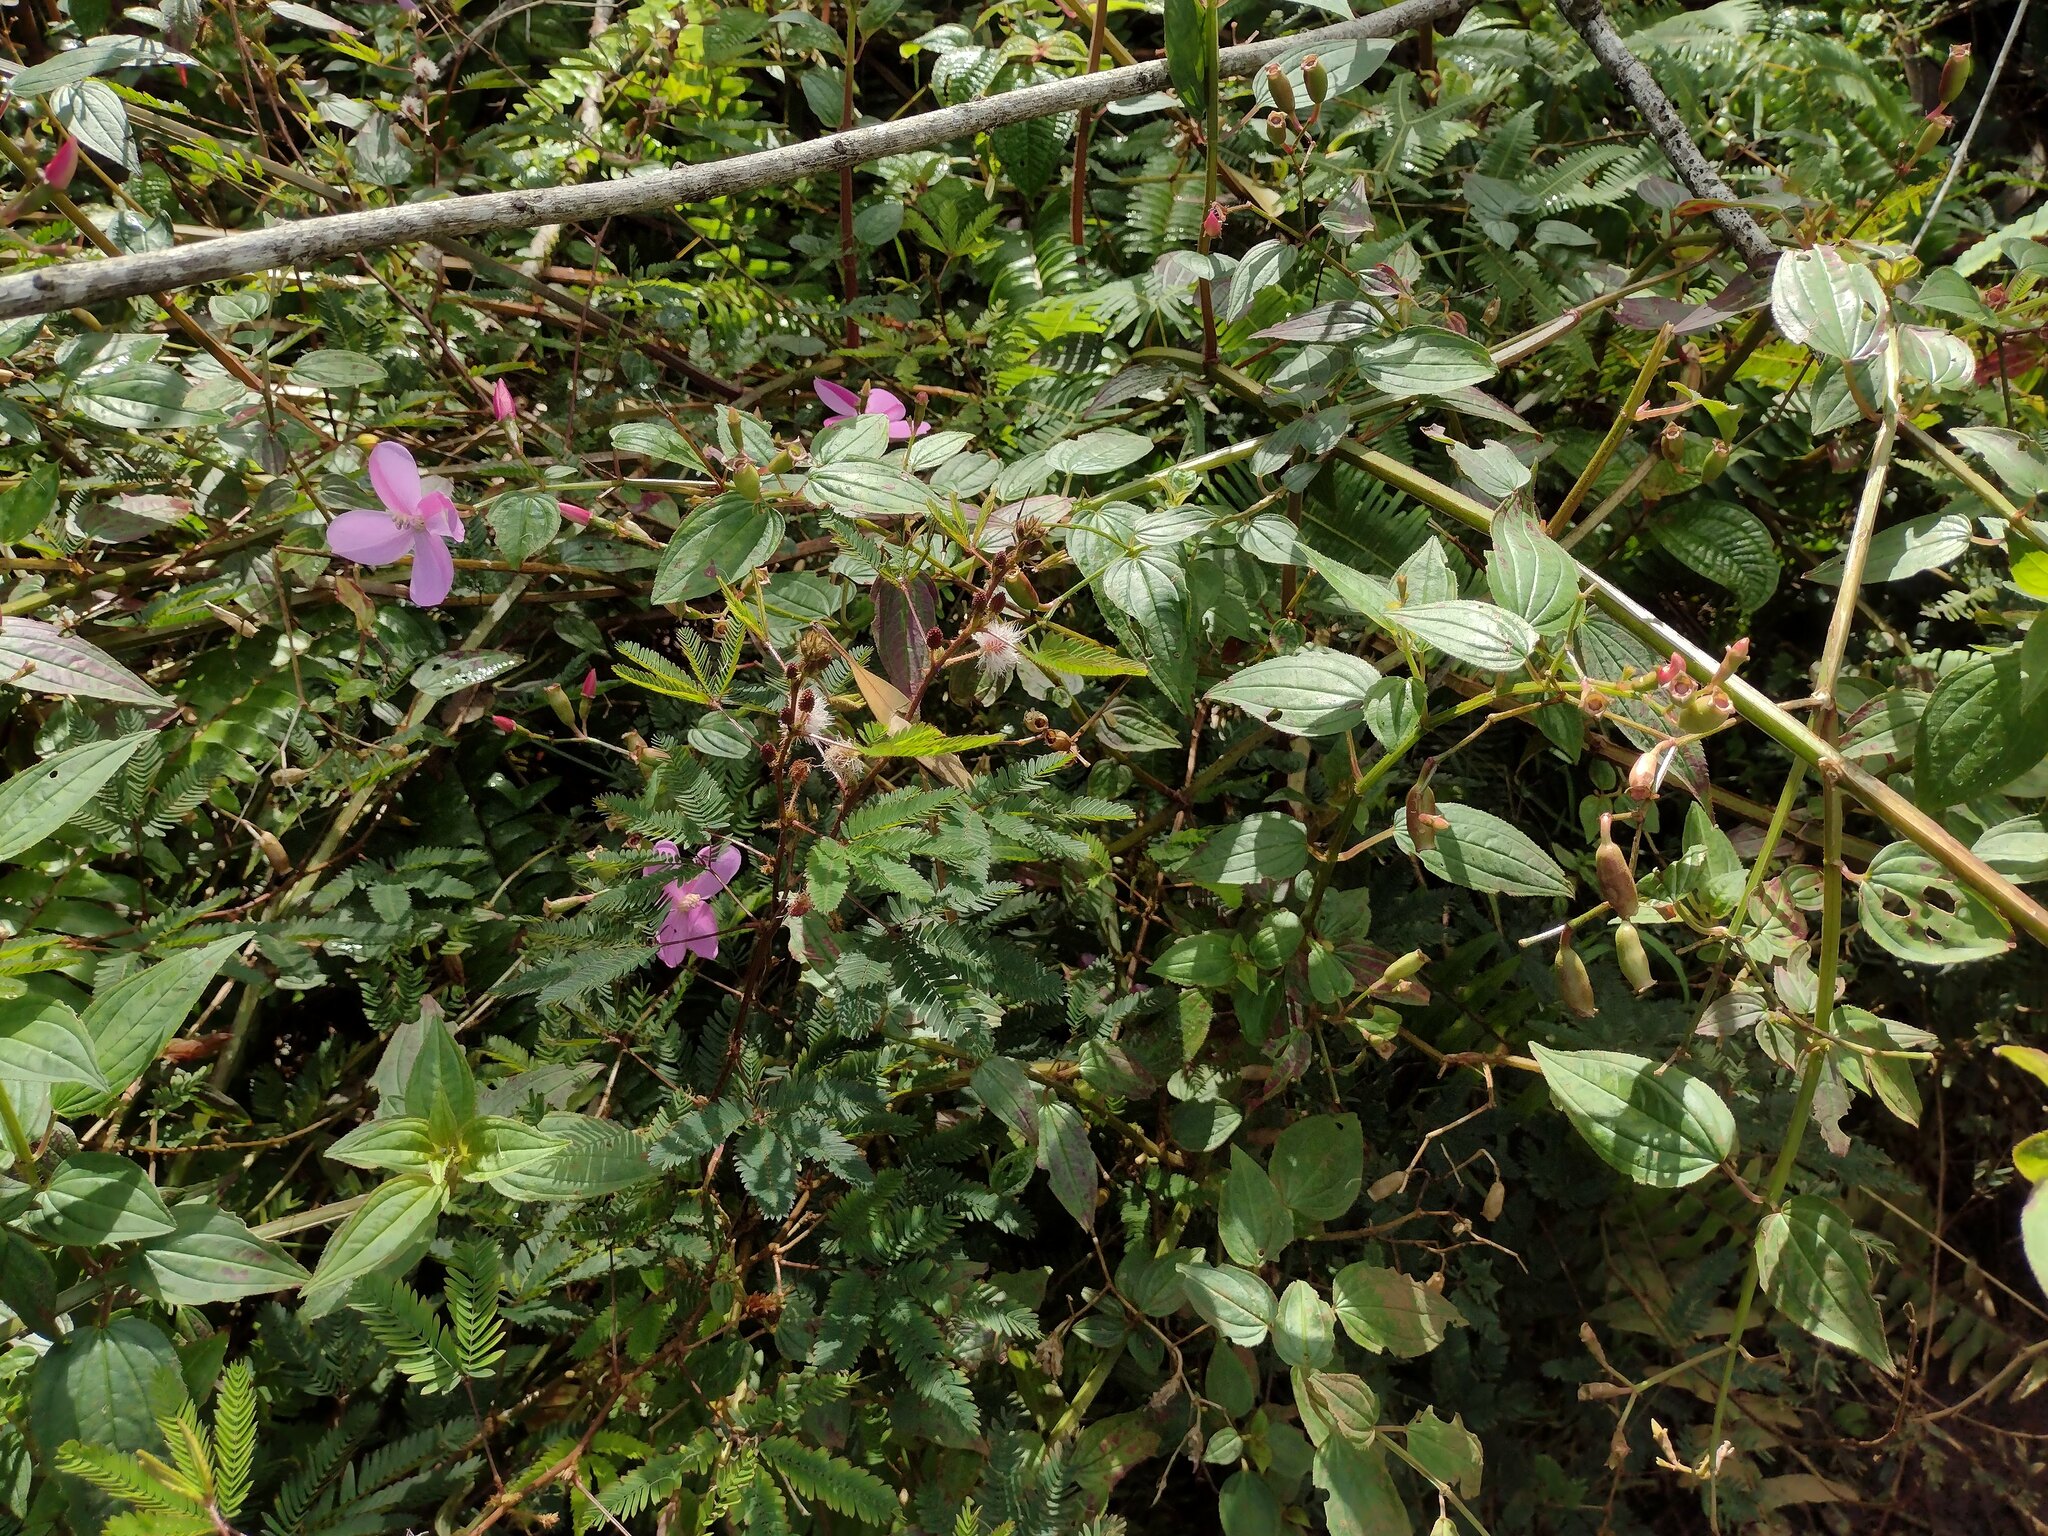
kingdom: Plantae
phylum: Tracheophyta
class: Magnoliopsida
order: Myrtales
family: Melastomataceae
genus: Arthrostemma
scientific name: Arthrostemma ciliatum
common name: Everblooming eavender
